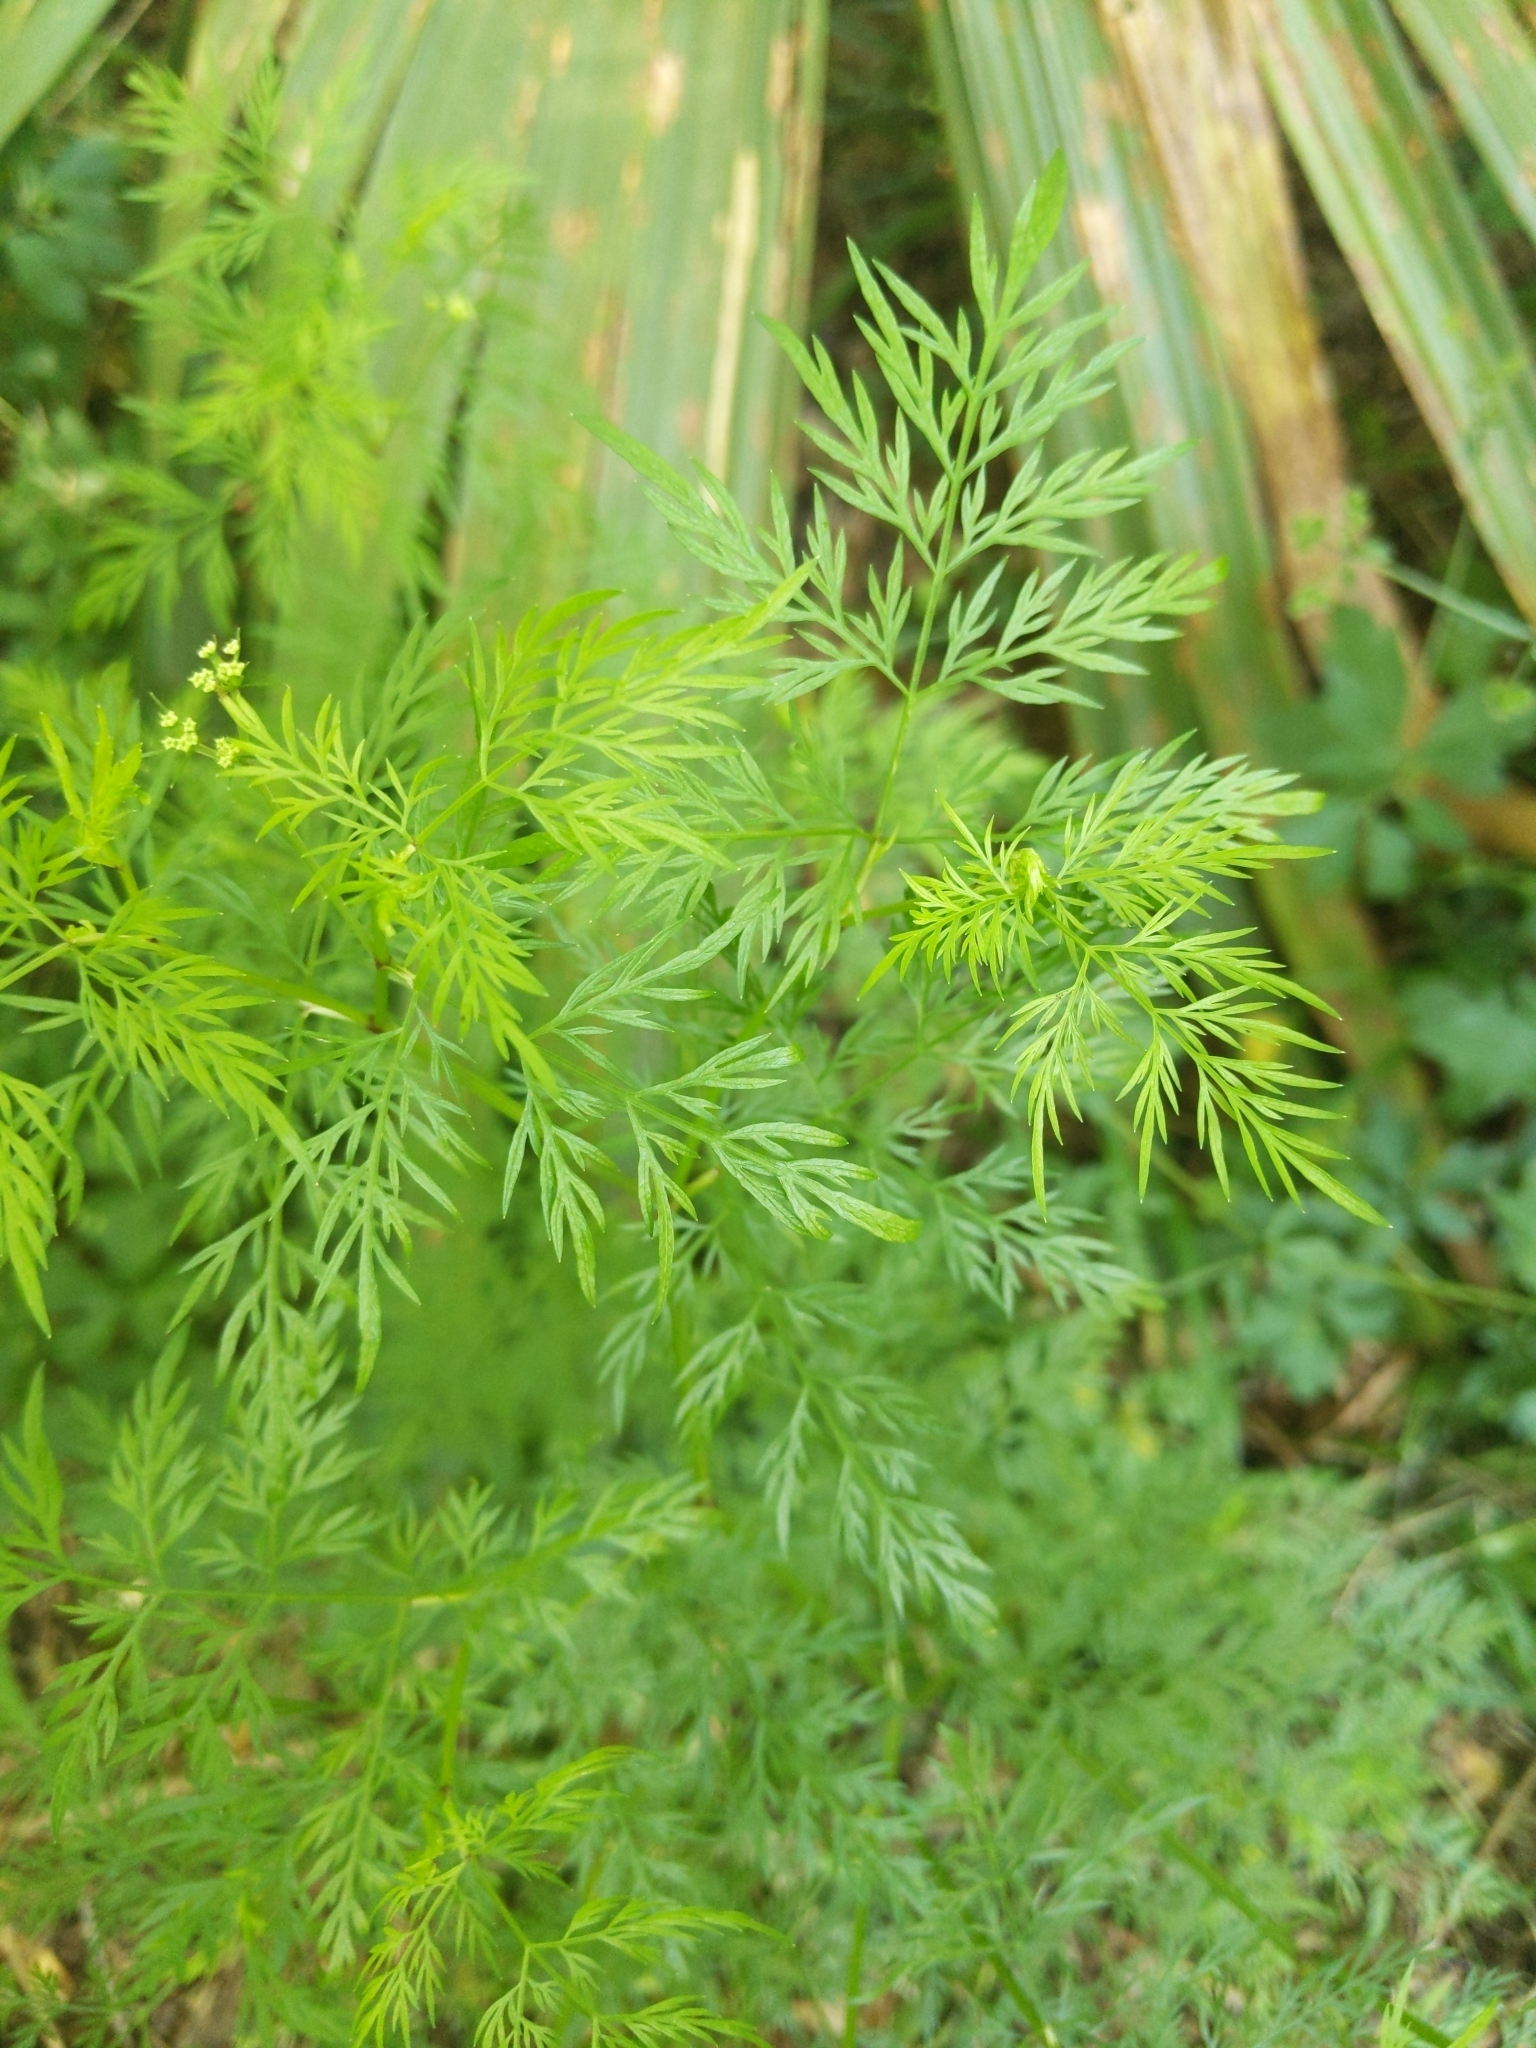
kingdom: Plantae
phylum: Tracheophyta
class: Magnoliopsida
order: Apiales
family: Apiaceae
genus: Trepocarpus
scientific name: Trepocarpus aethusae
